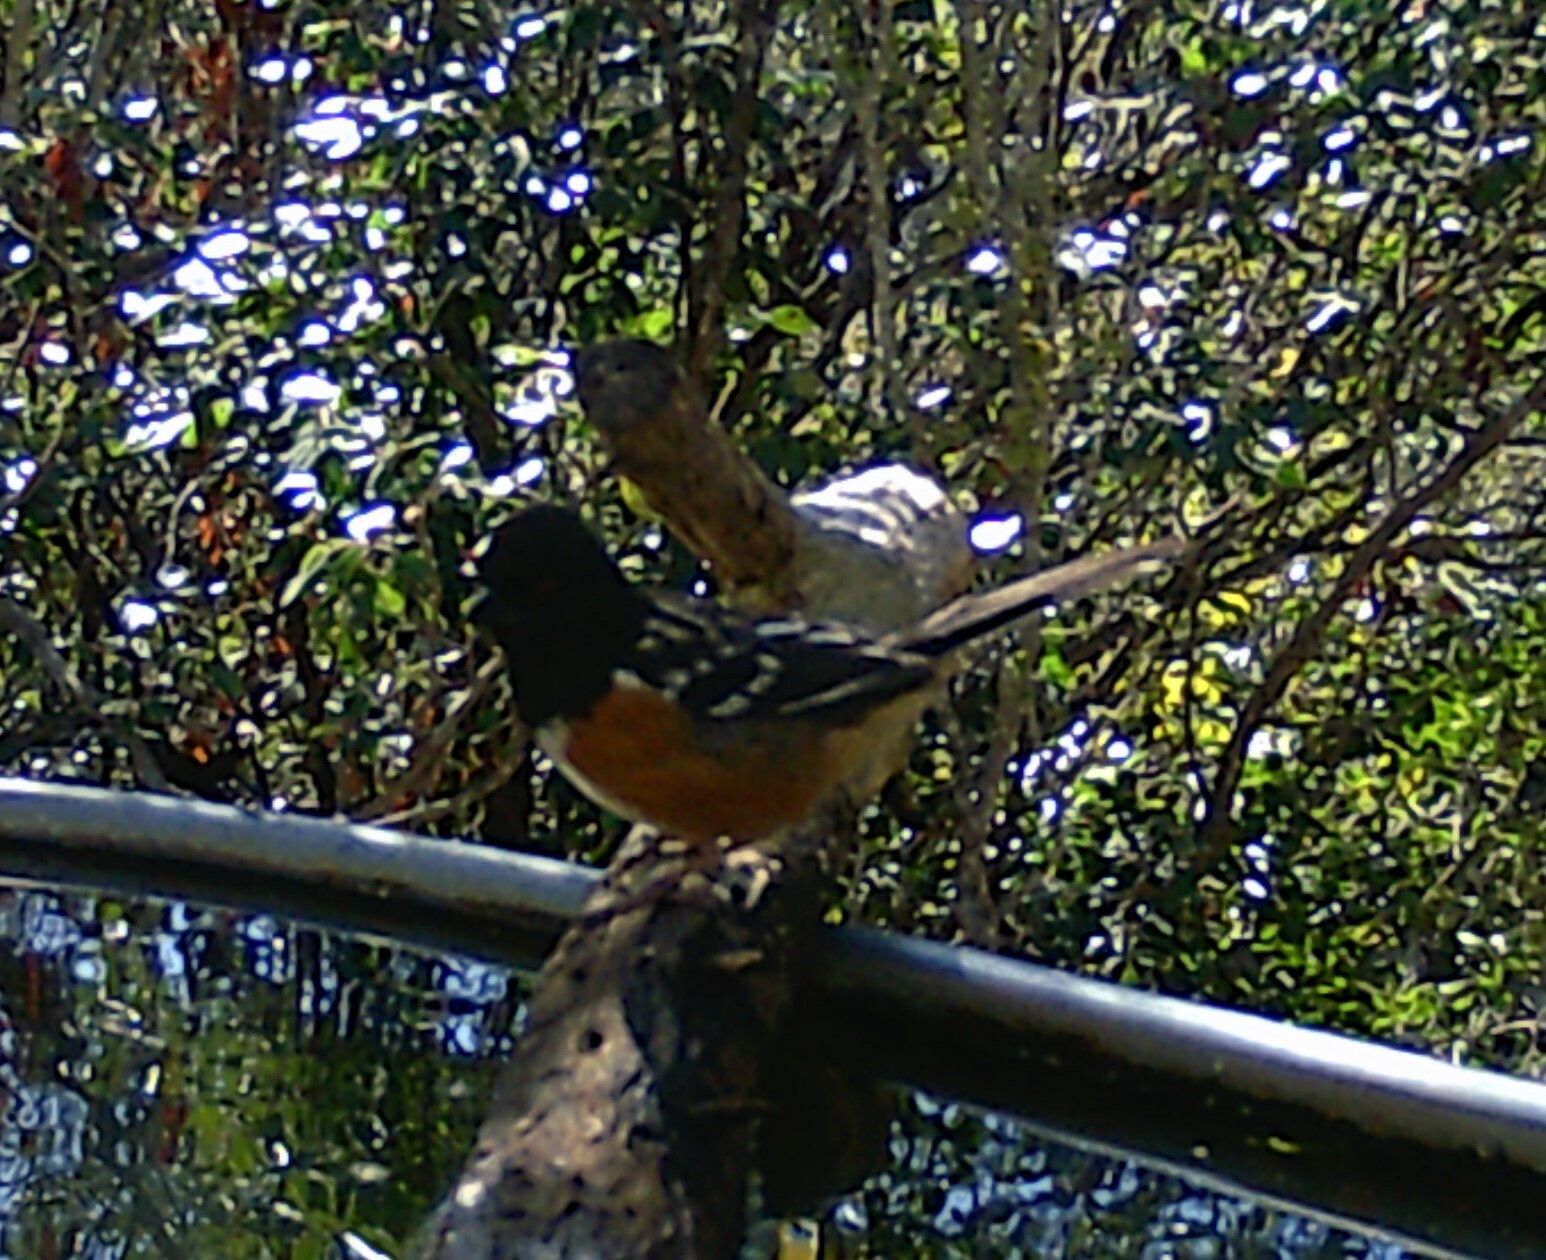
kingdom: Animalia
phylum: Chordata
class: Aves
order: Passeriformes
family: Passerellidae
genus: Pipilo
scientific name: Pipilo maculatus
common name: Spotted towhee
